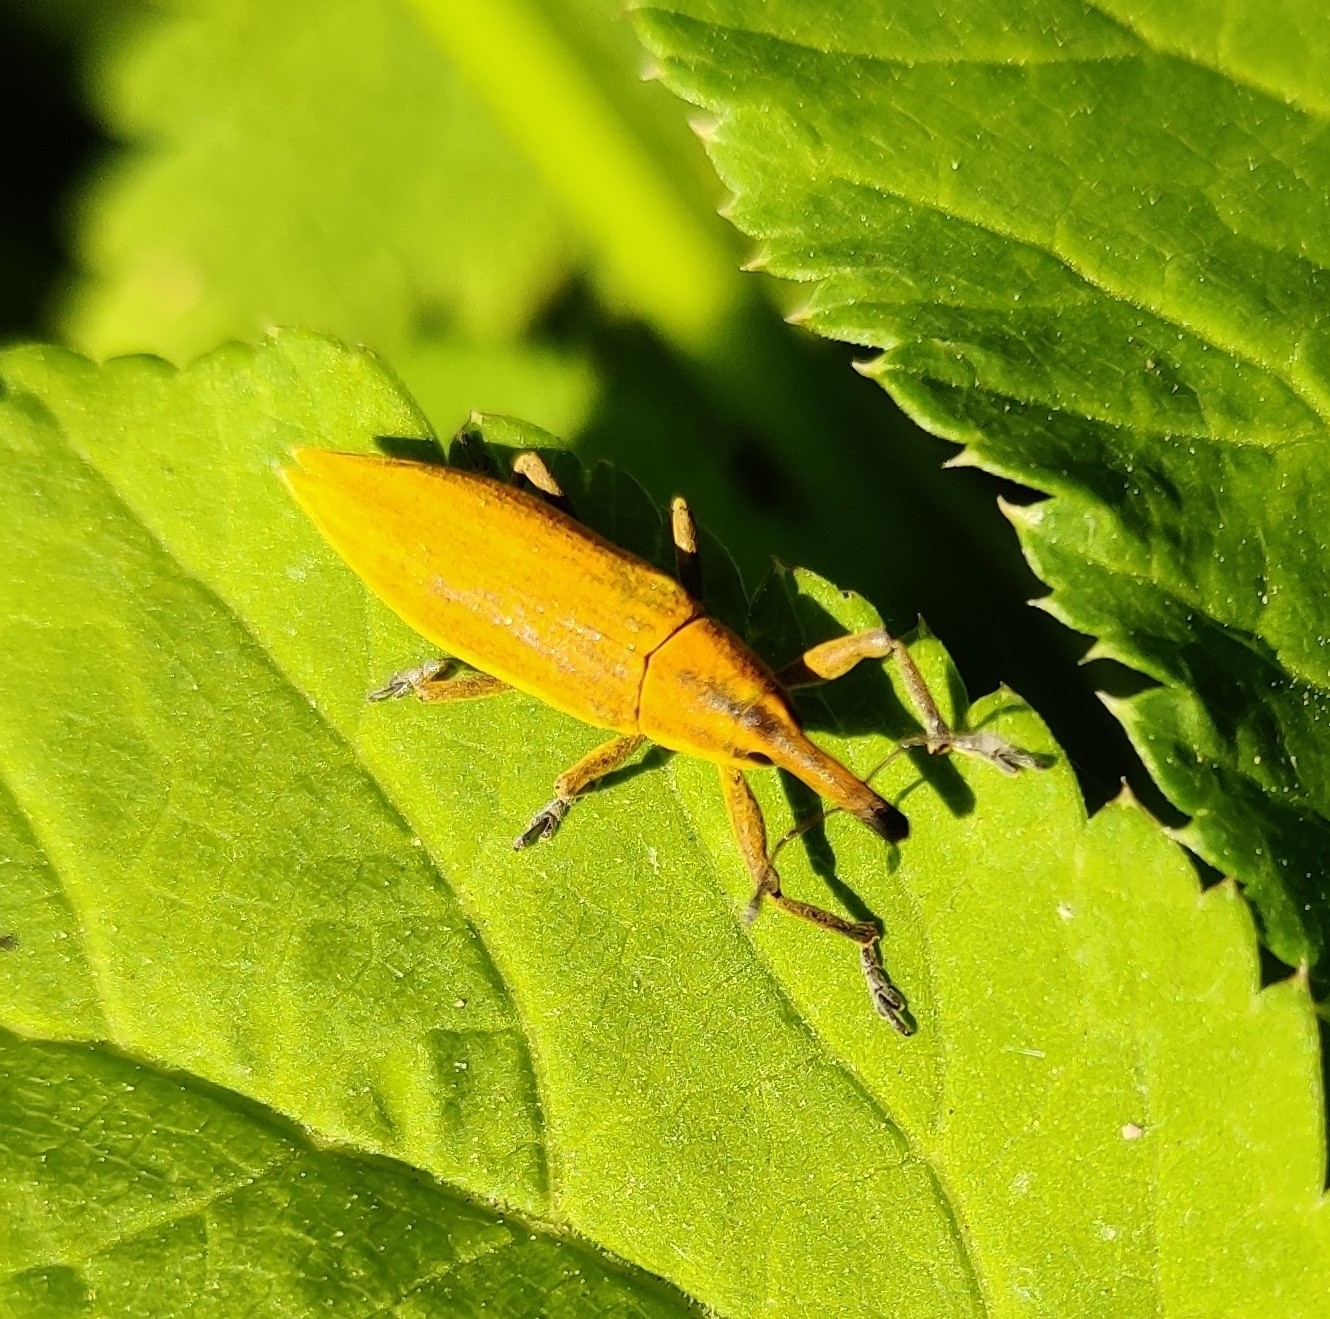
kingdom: Animalia
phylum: Arthropoda
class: Insecta
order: Coleoptera
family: Curculionidae
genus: Lixus
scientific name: Lixus iridis
